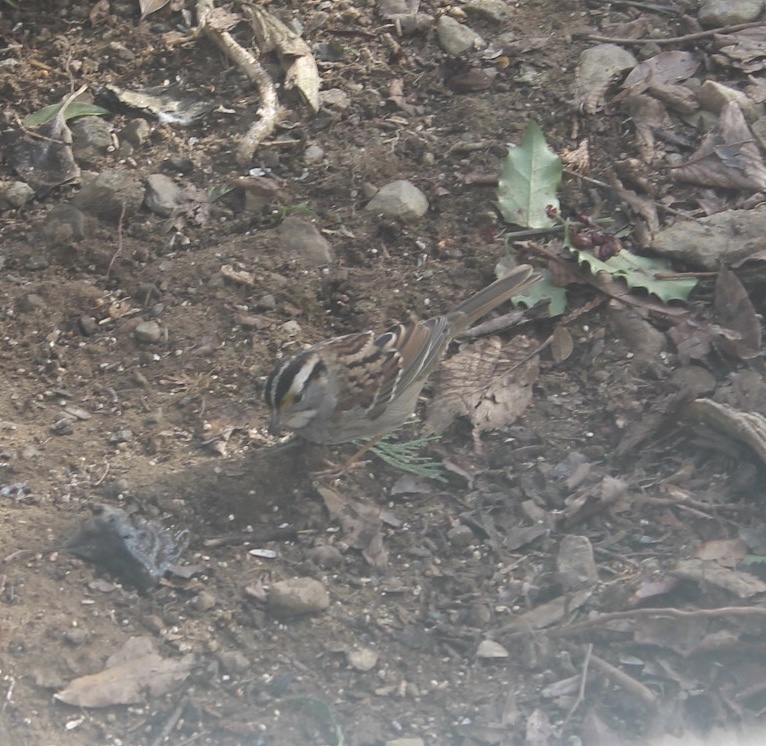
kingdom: Animalia
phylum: Chordata
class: Aves
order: Passeriformes
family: Passerellidae
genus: Zonotrichia
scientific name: Zonotrichia albicollis
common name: White-throated sparrow
